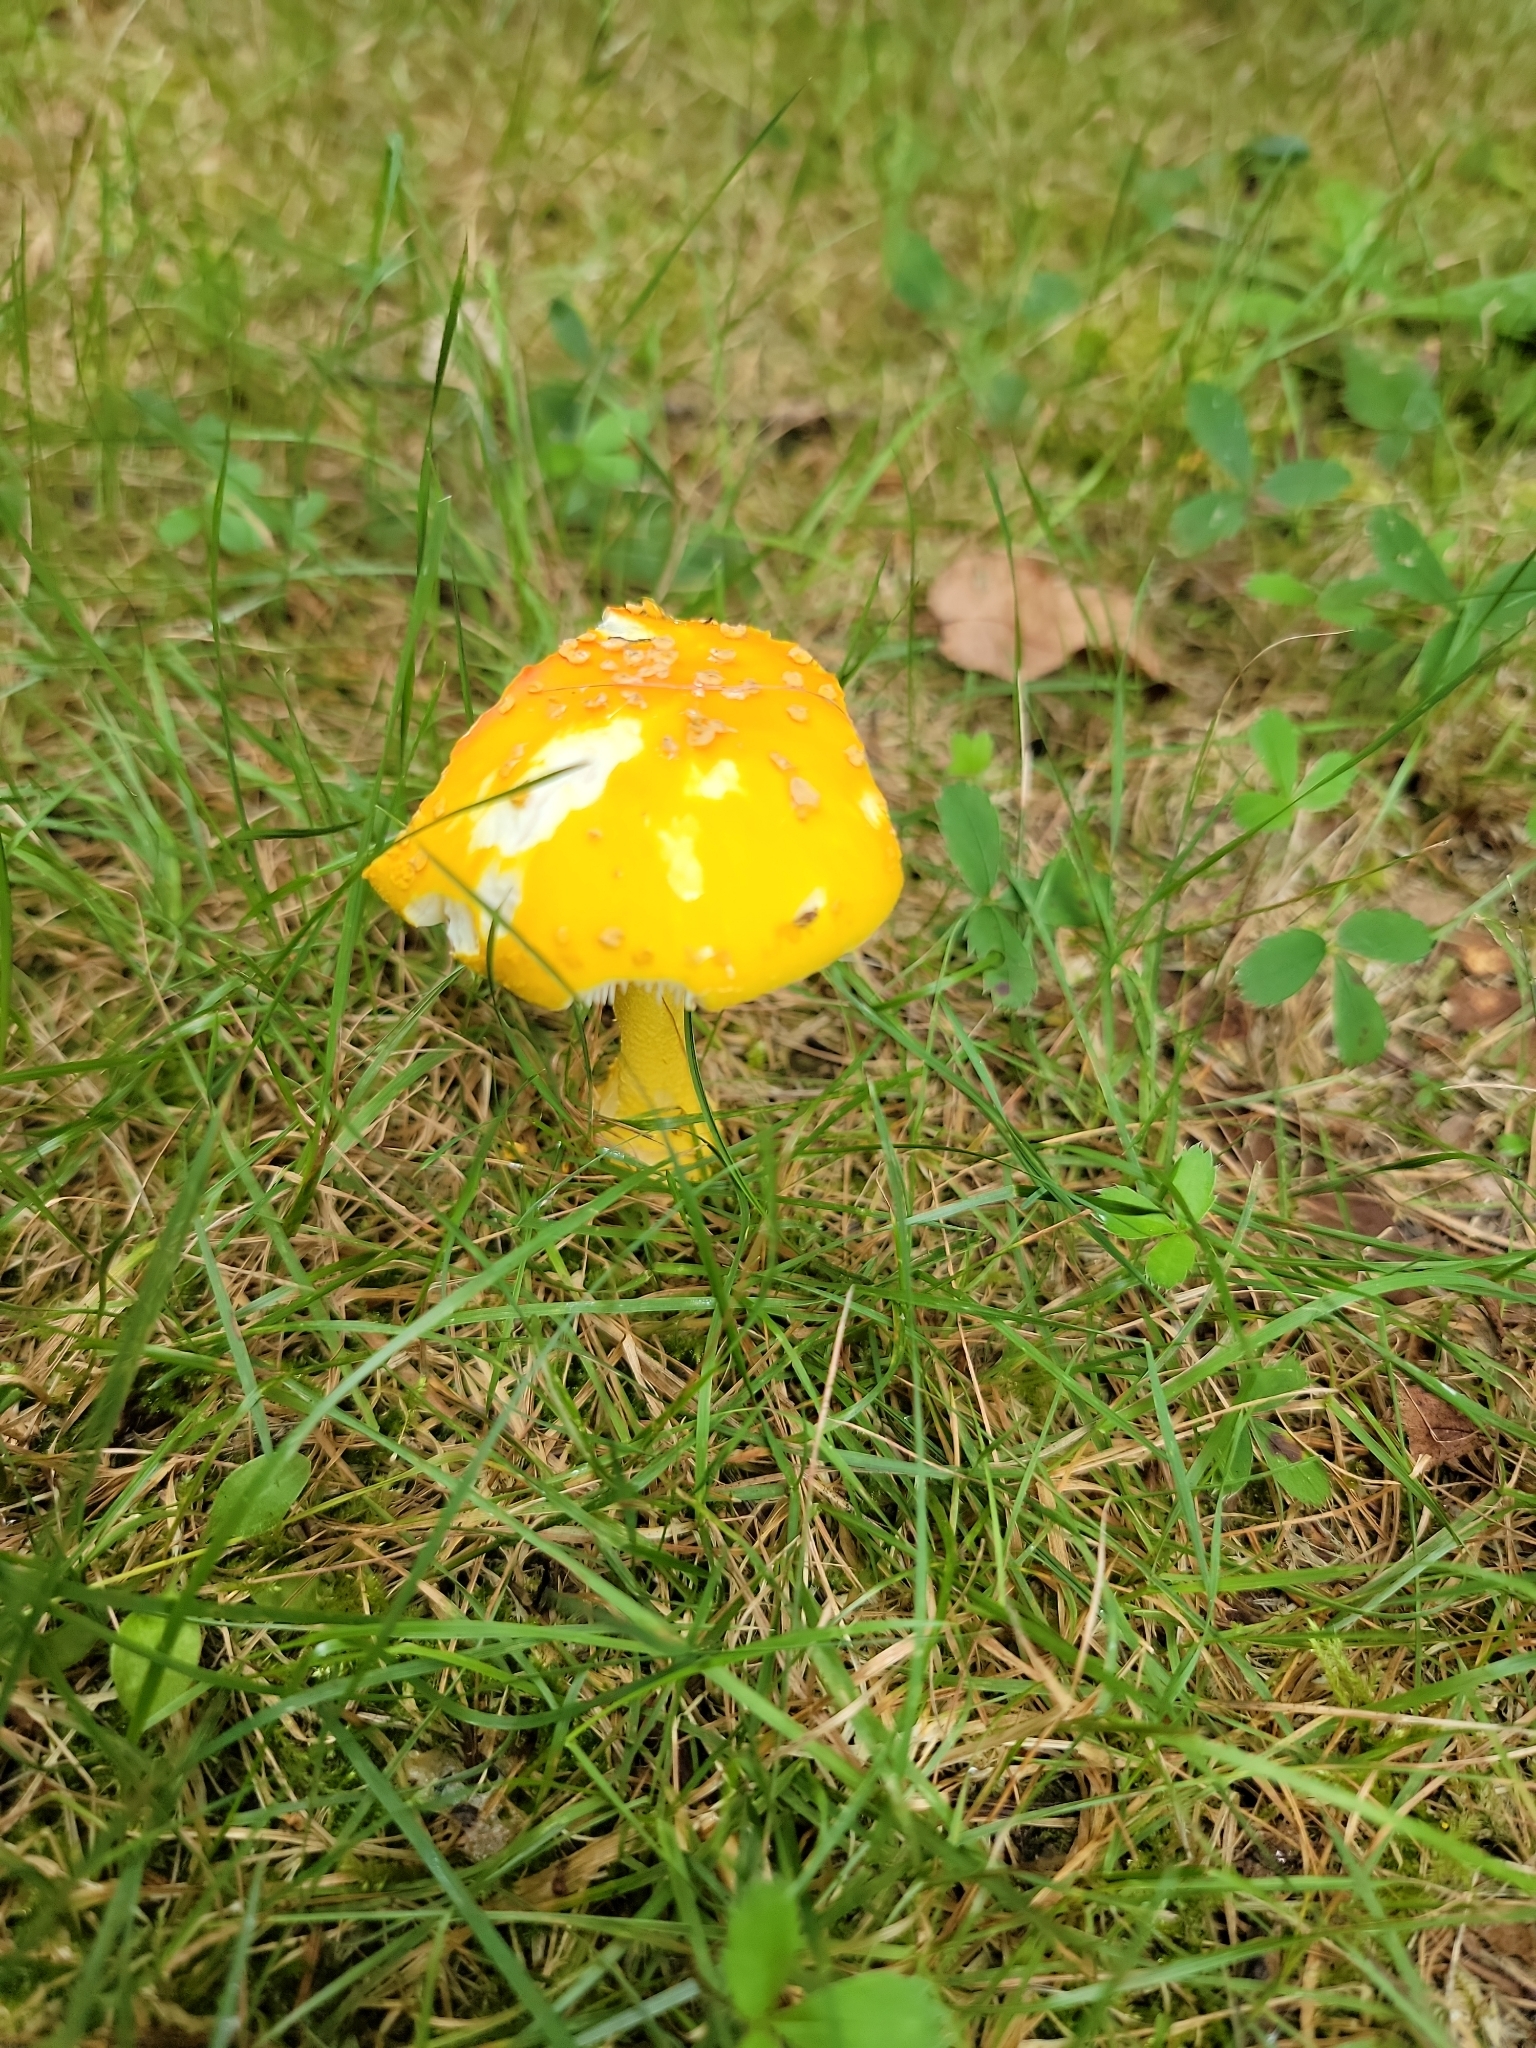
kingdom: Fungi
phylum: Basidiomycota
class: Agaricomycetes
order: Agaricales
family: Amanitaceae
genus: Amanita
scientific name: Amanita flavoconia
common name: Yellow patches
